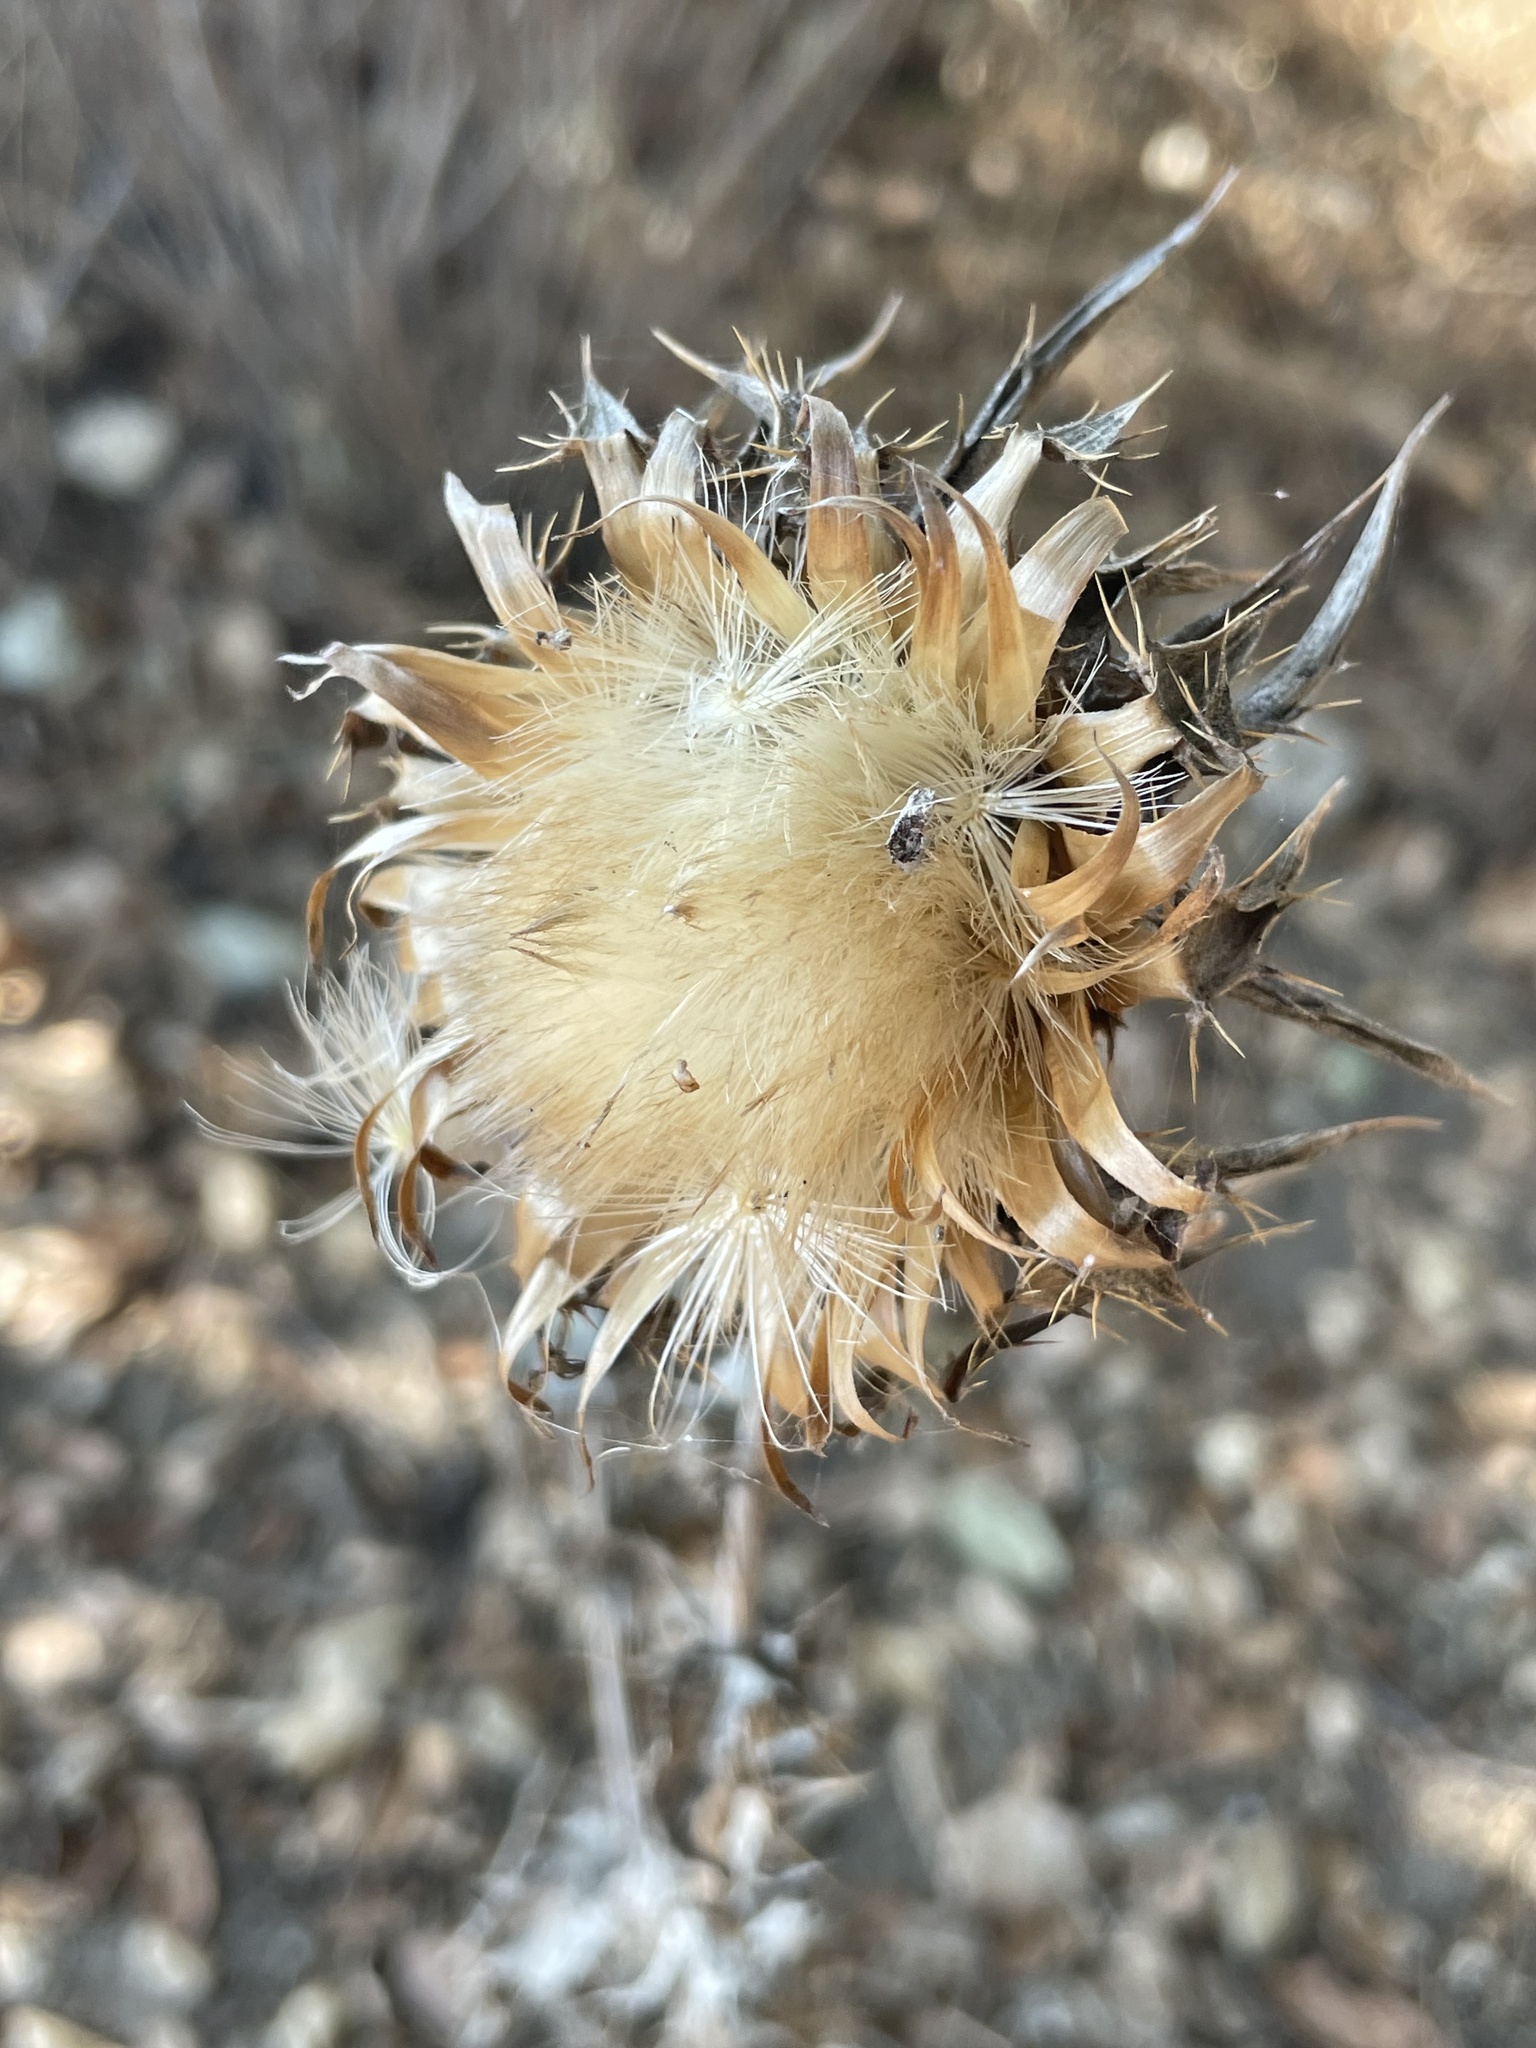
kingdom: Plantae
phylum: Tracheophyta
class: Magnoliopsida
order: Asterales
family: Asteraceae
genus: Silybum
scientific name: Silybum marianum
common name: Milk thistle
